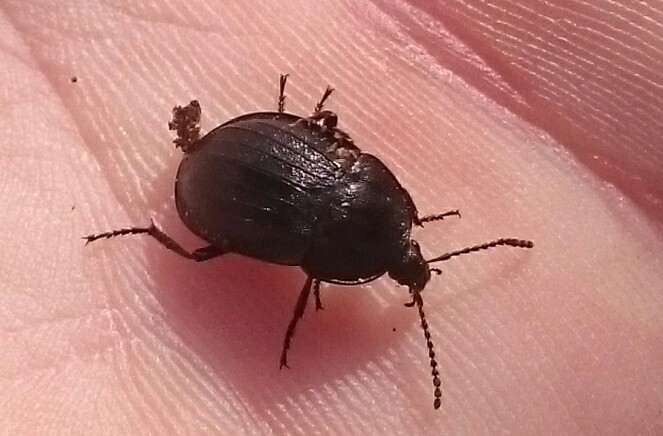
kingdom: Animalia
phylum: Arthropoda
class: Insecta
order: Coleoptera
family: Staphylinidae
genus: Silpha
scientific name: Silpha atrata
